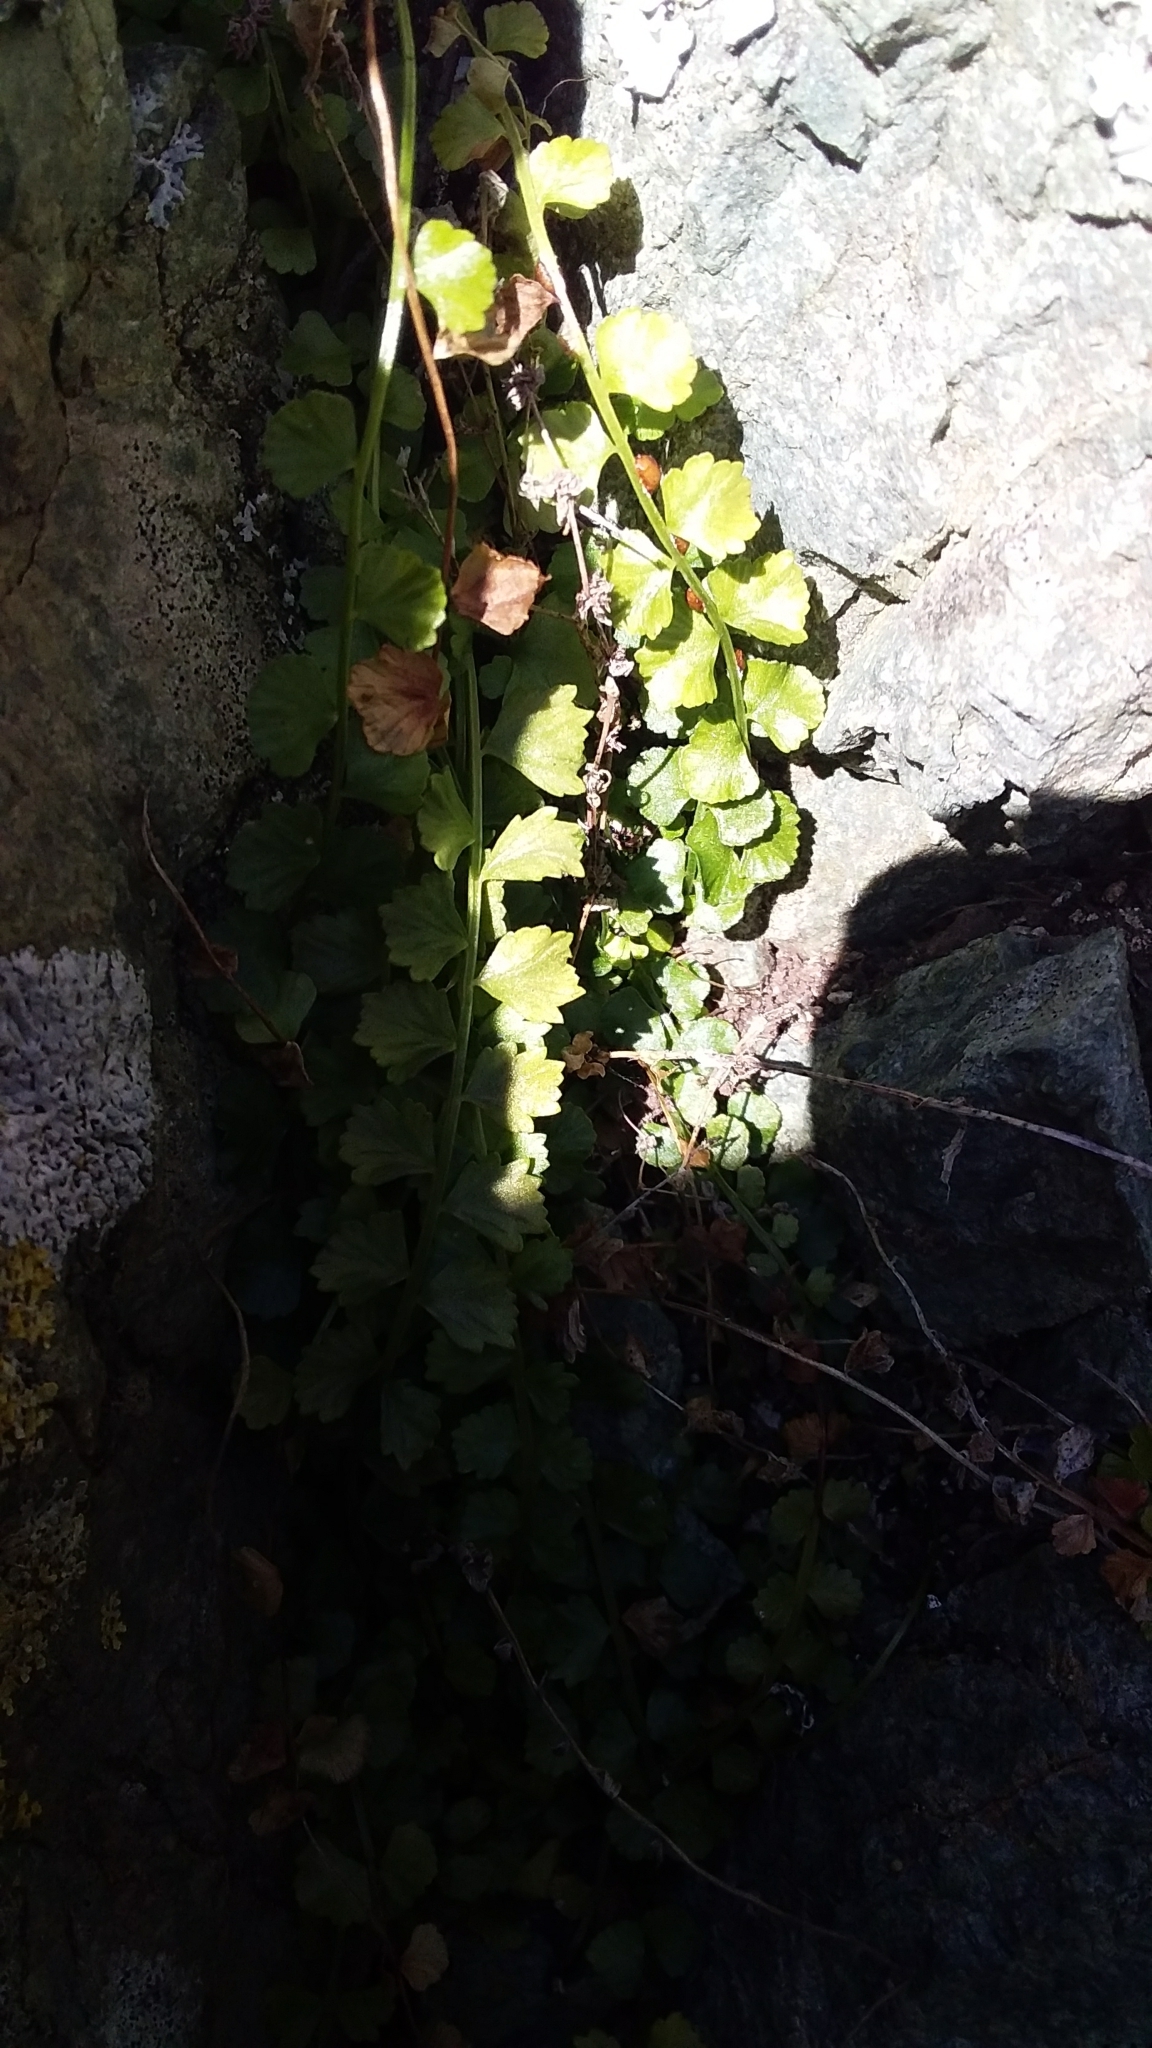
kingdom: Plantae
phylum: Tracheophyta
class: Polypodiopsida
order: Polypodiales
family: Aspleniaceae
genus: Asplenium
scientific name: Asplenium flabellifolium
